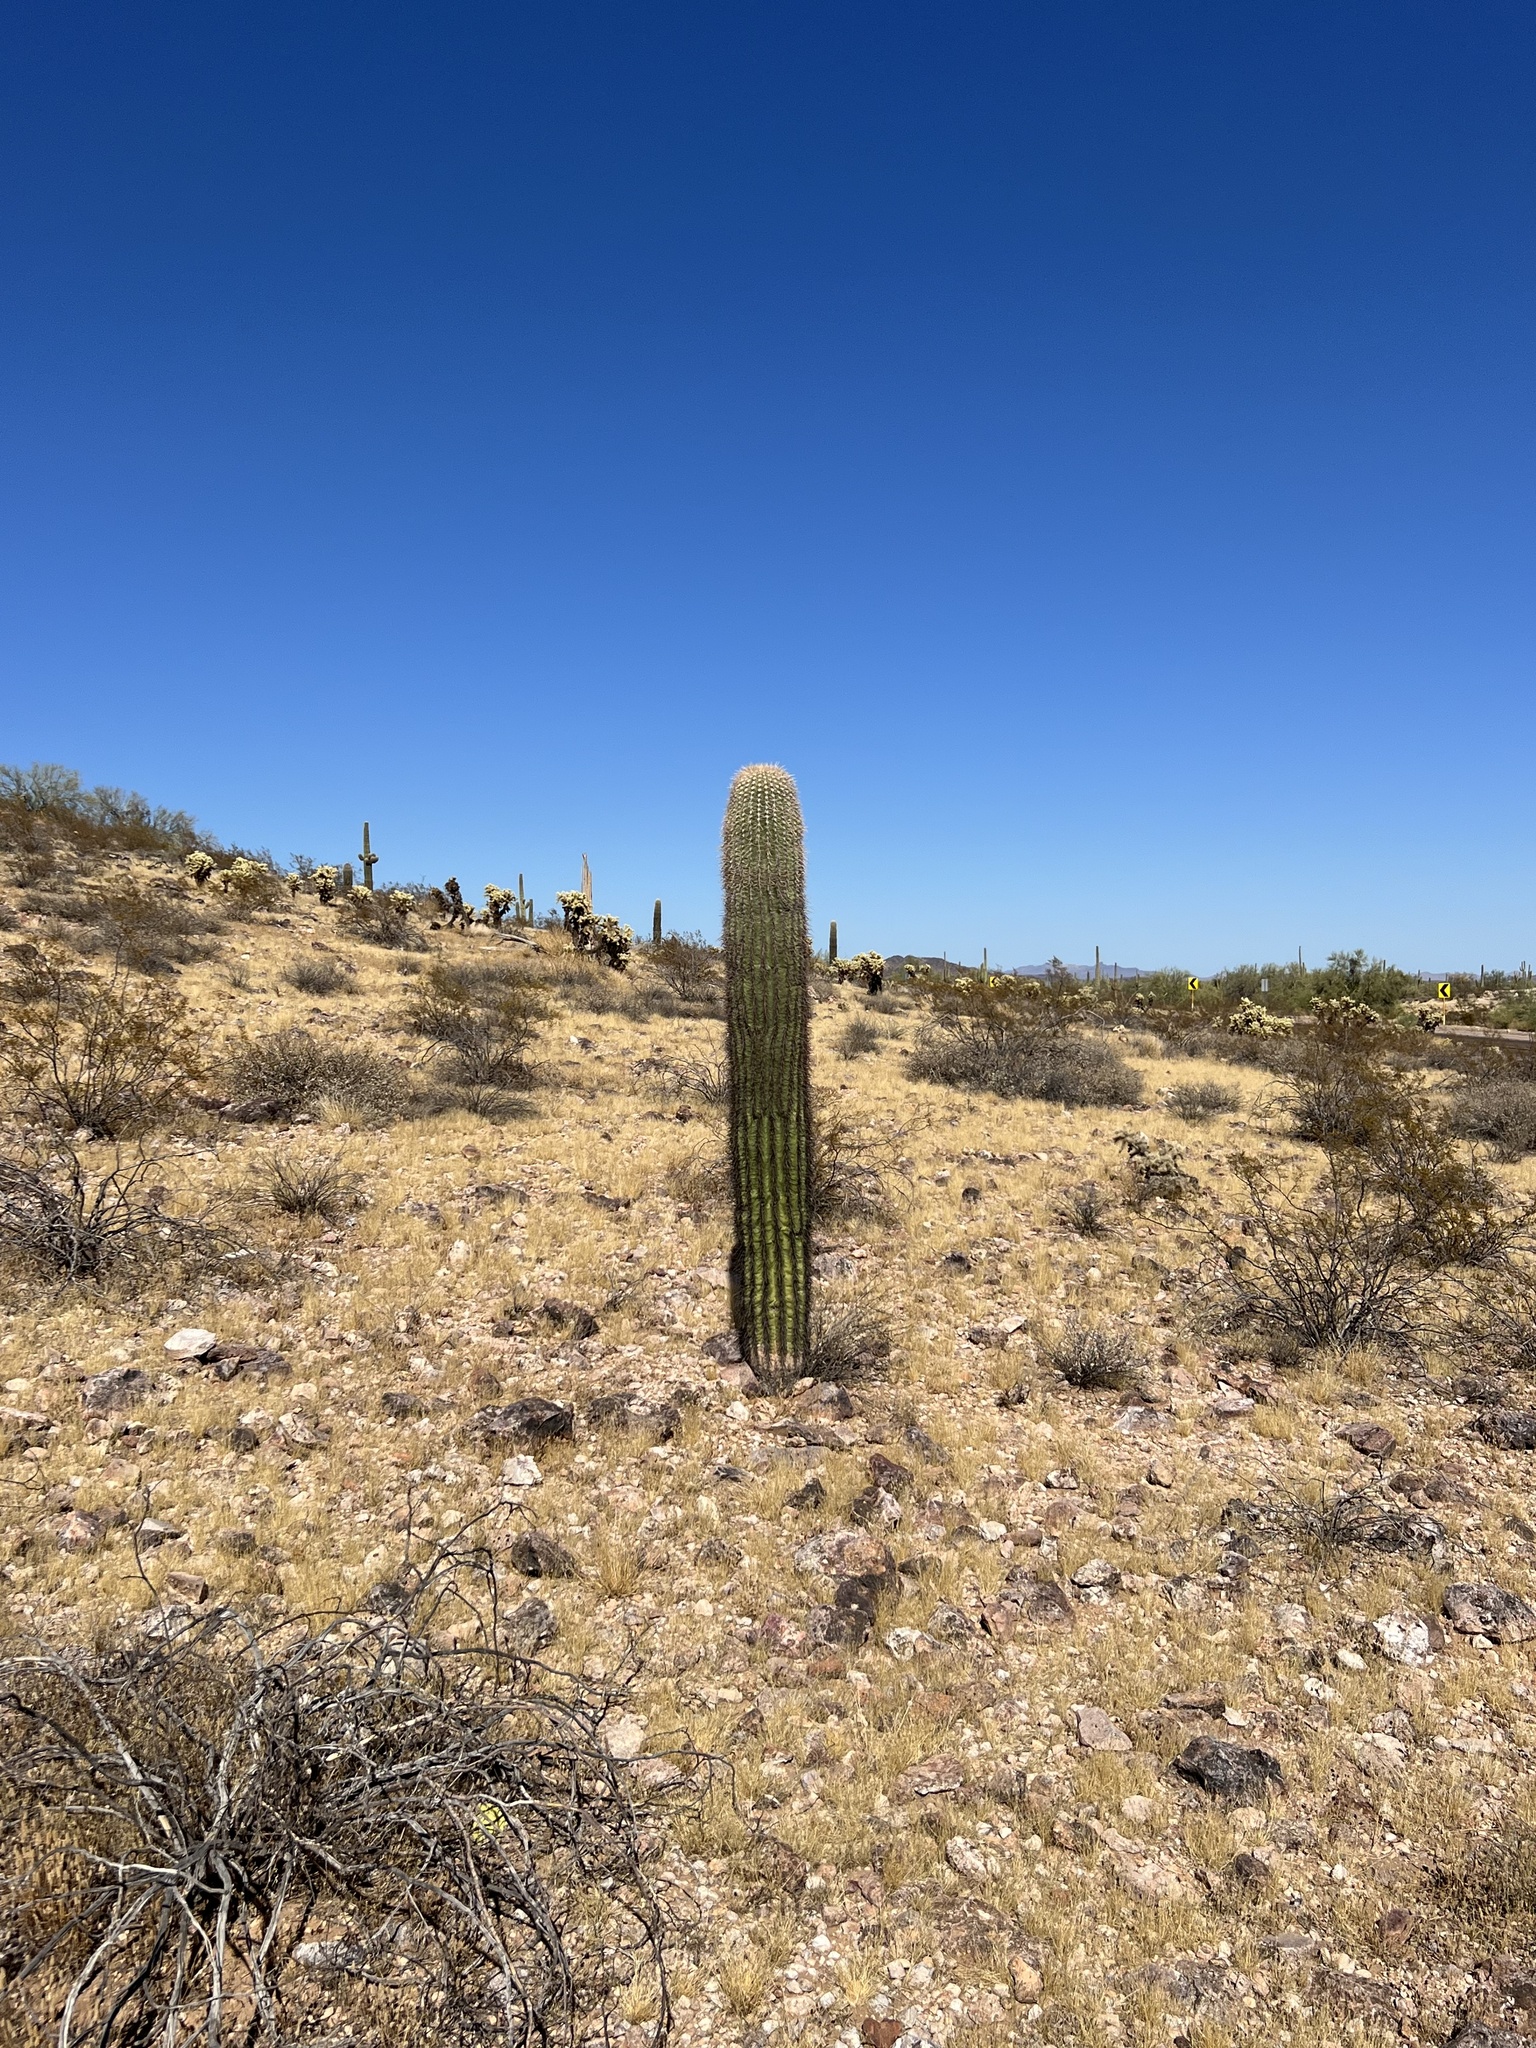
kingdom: Plantae
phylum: Tracheophyta
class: Magnoliopsida
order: Caryophyllales
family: Cactaceae
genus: Carnegiea
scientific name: Carnegiea gigantea
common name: Saguaro
